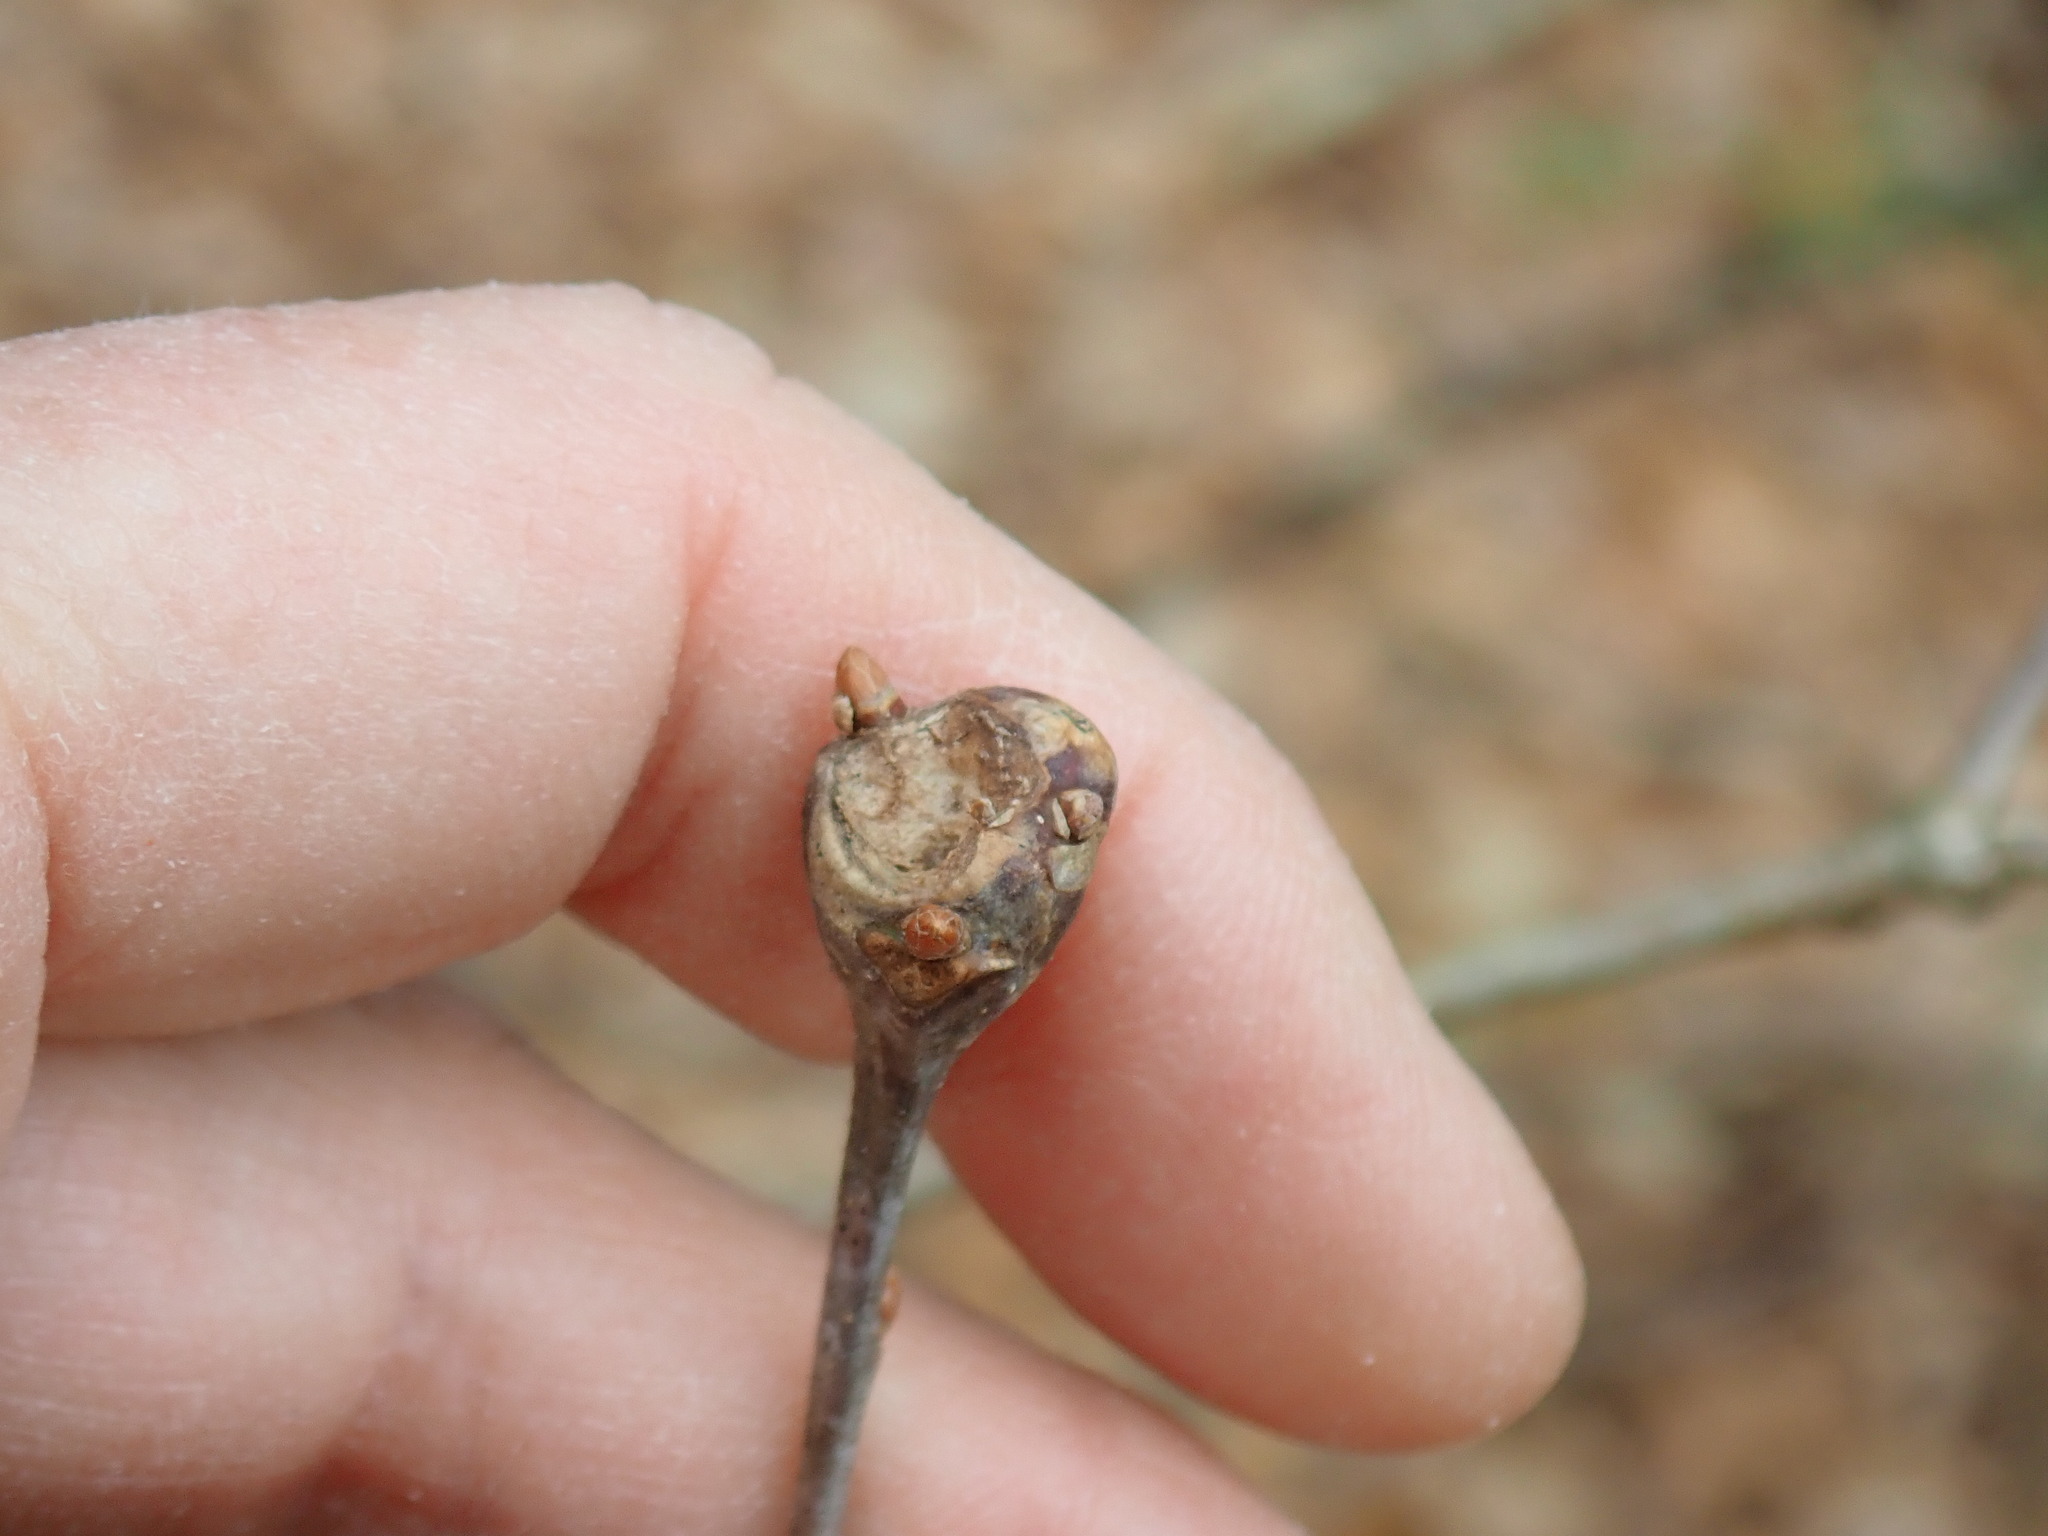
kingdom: Animalia
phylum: Arthropoda
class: Insecta
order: Hymenoptera
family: Cynipidae
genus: Callirhytis
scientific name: Callirhytis clavula
